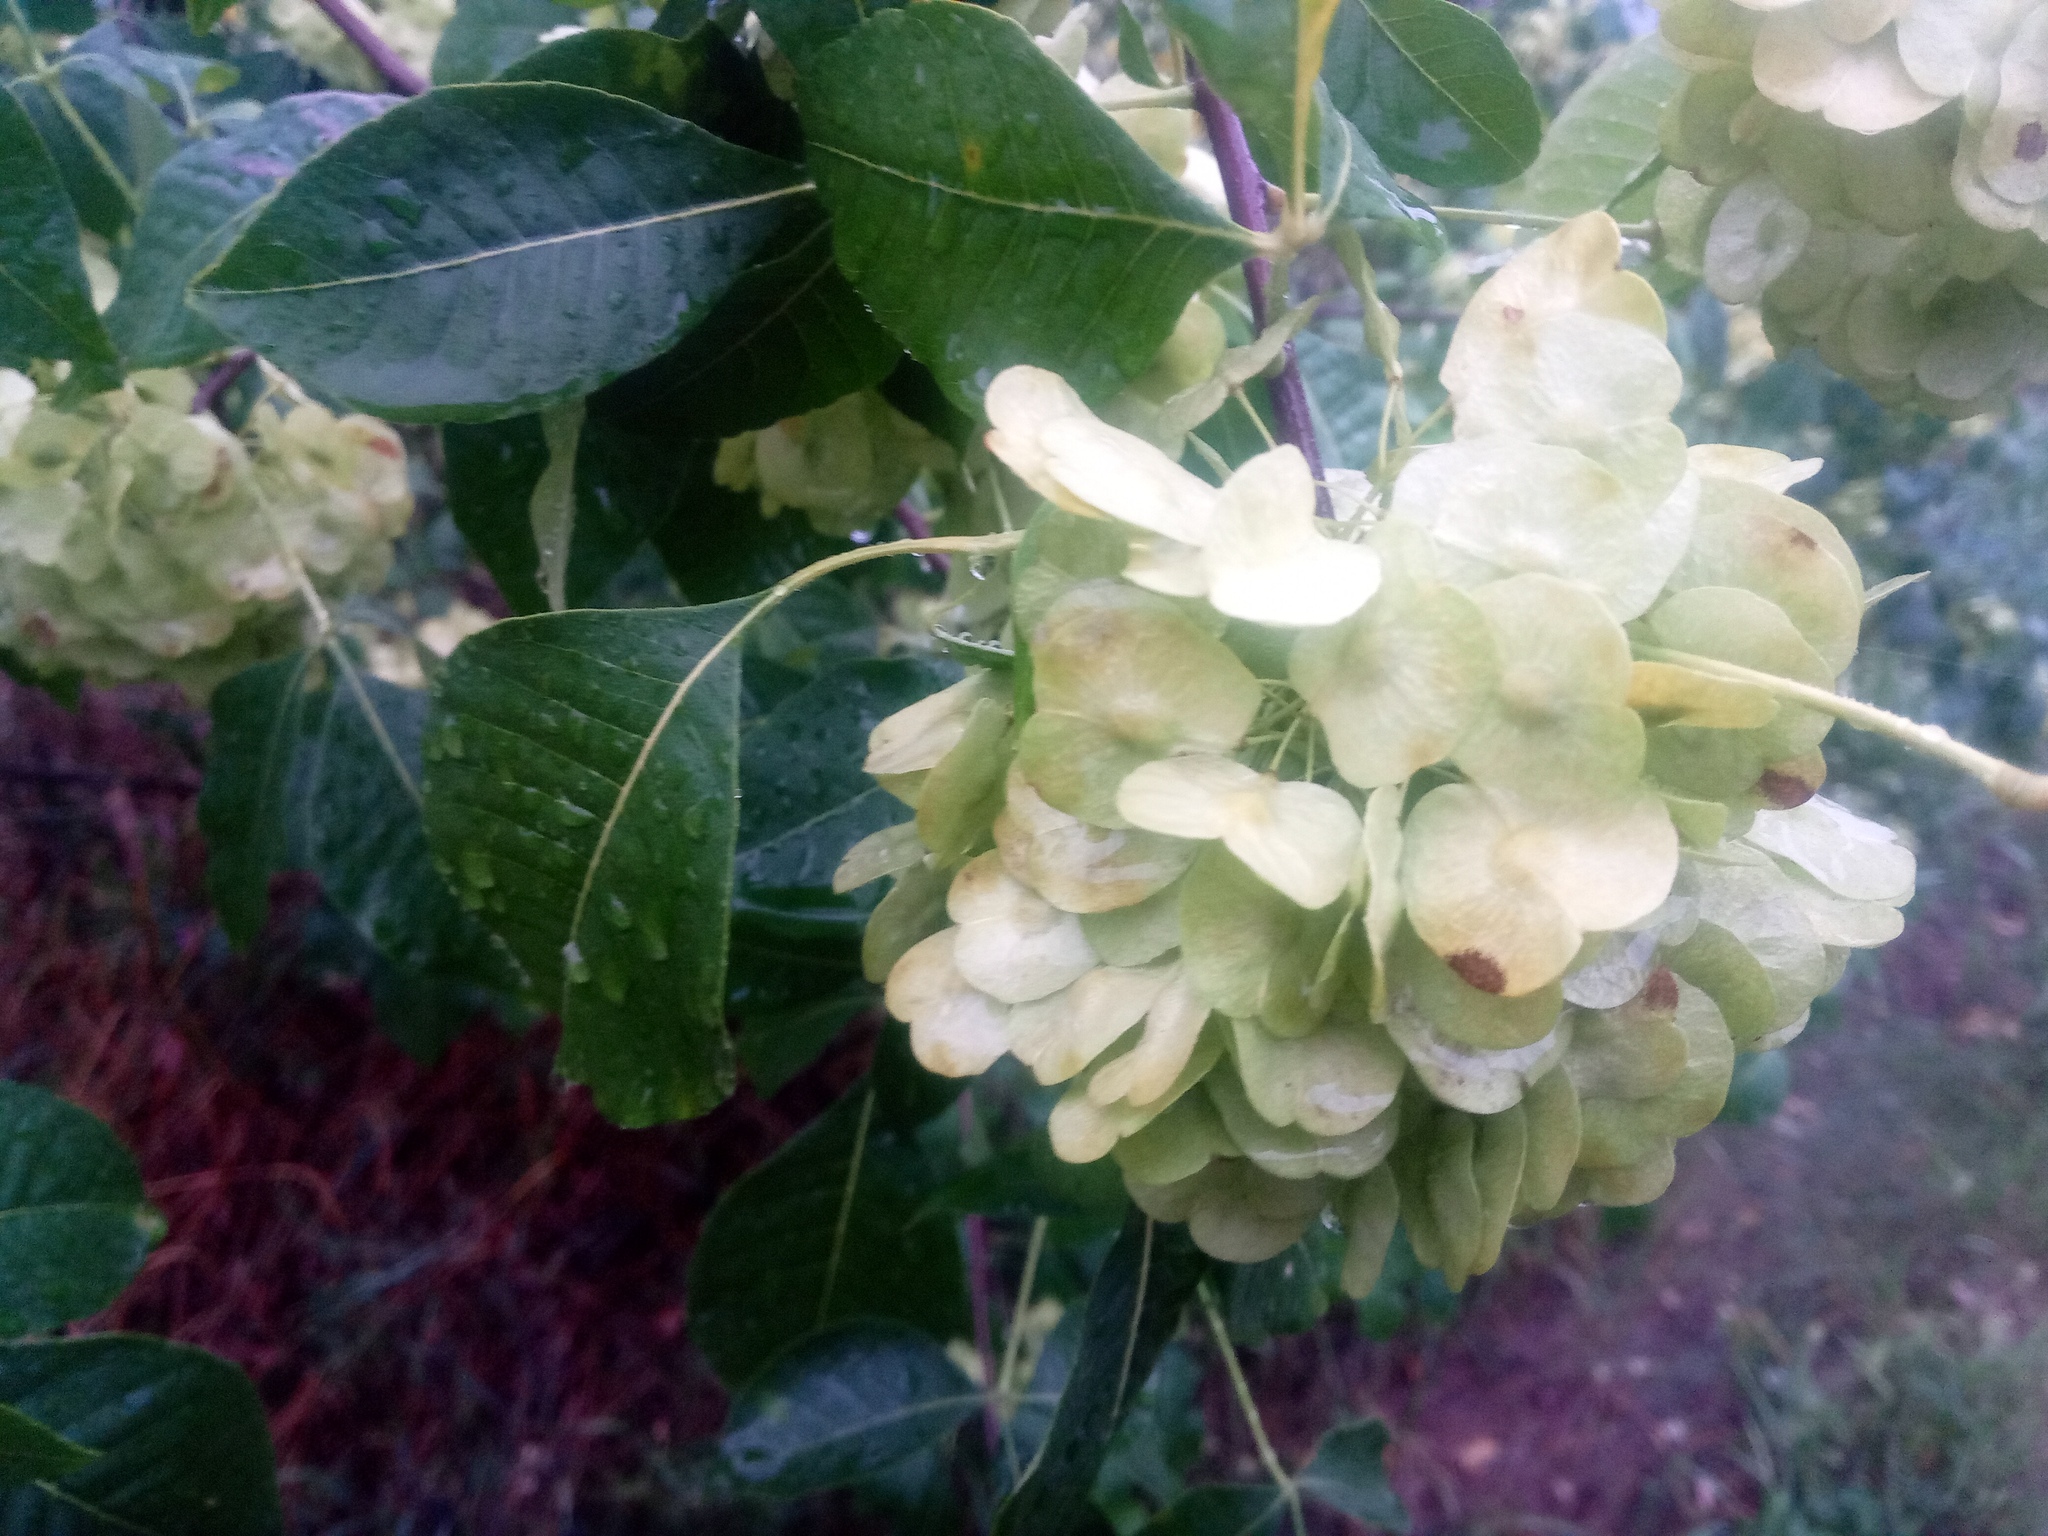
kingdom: Plantae
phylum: Tracheophyta
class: Magnoliopsida
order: Sapindales
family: Rutaceae
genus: Ptelea
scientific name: Ptelea trifoliata
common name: Common hop-tree
